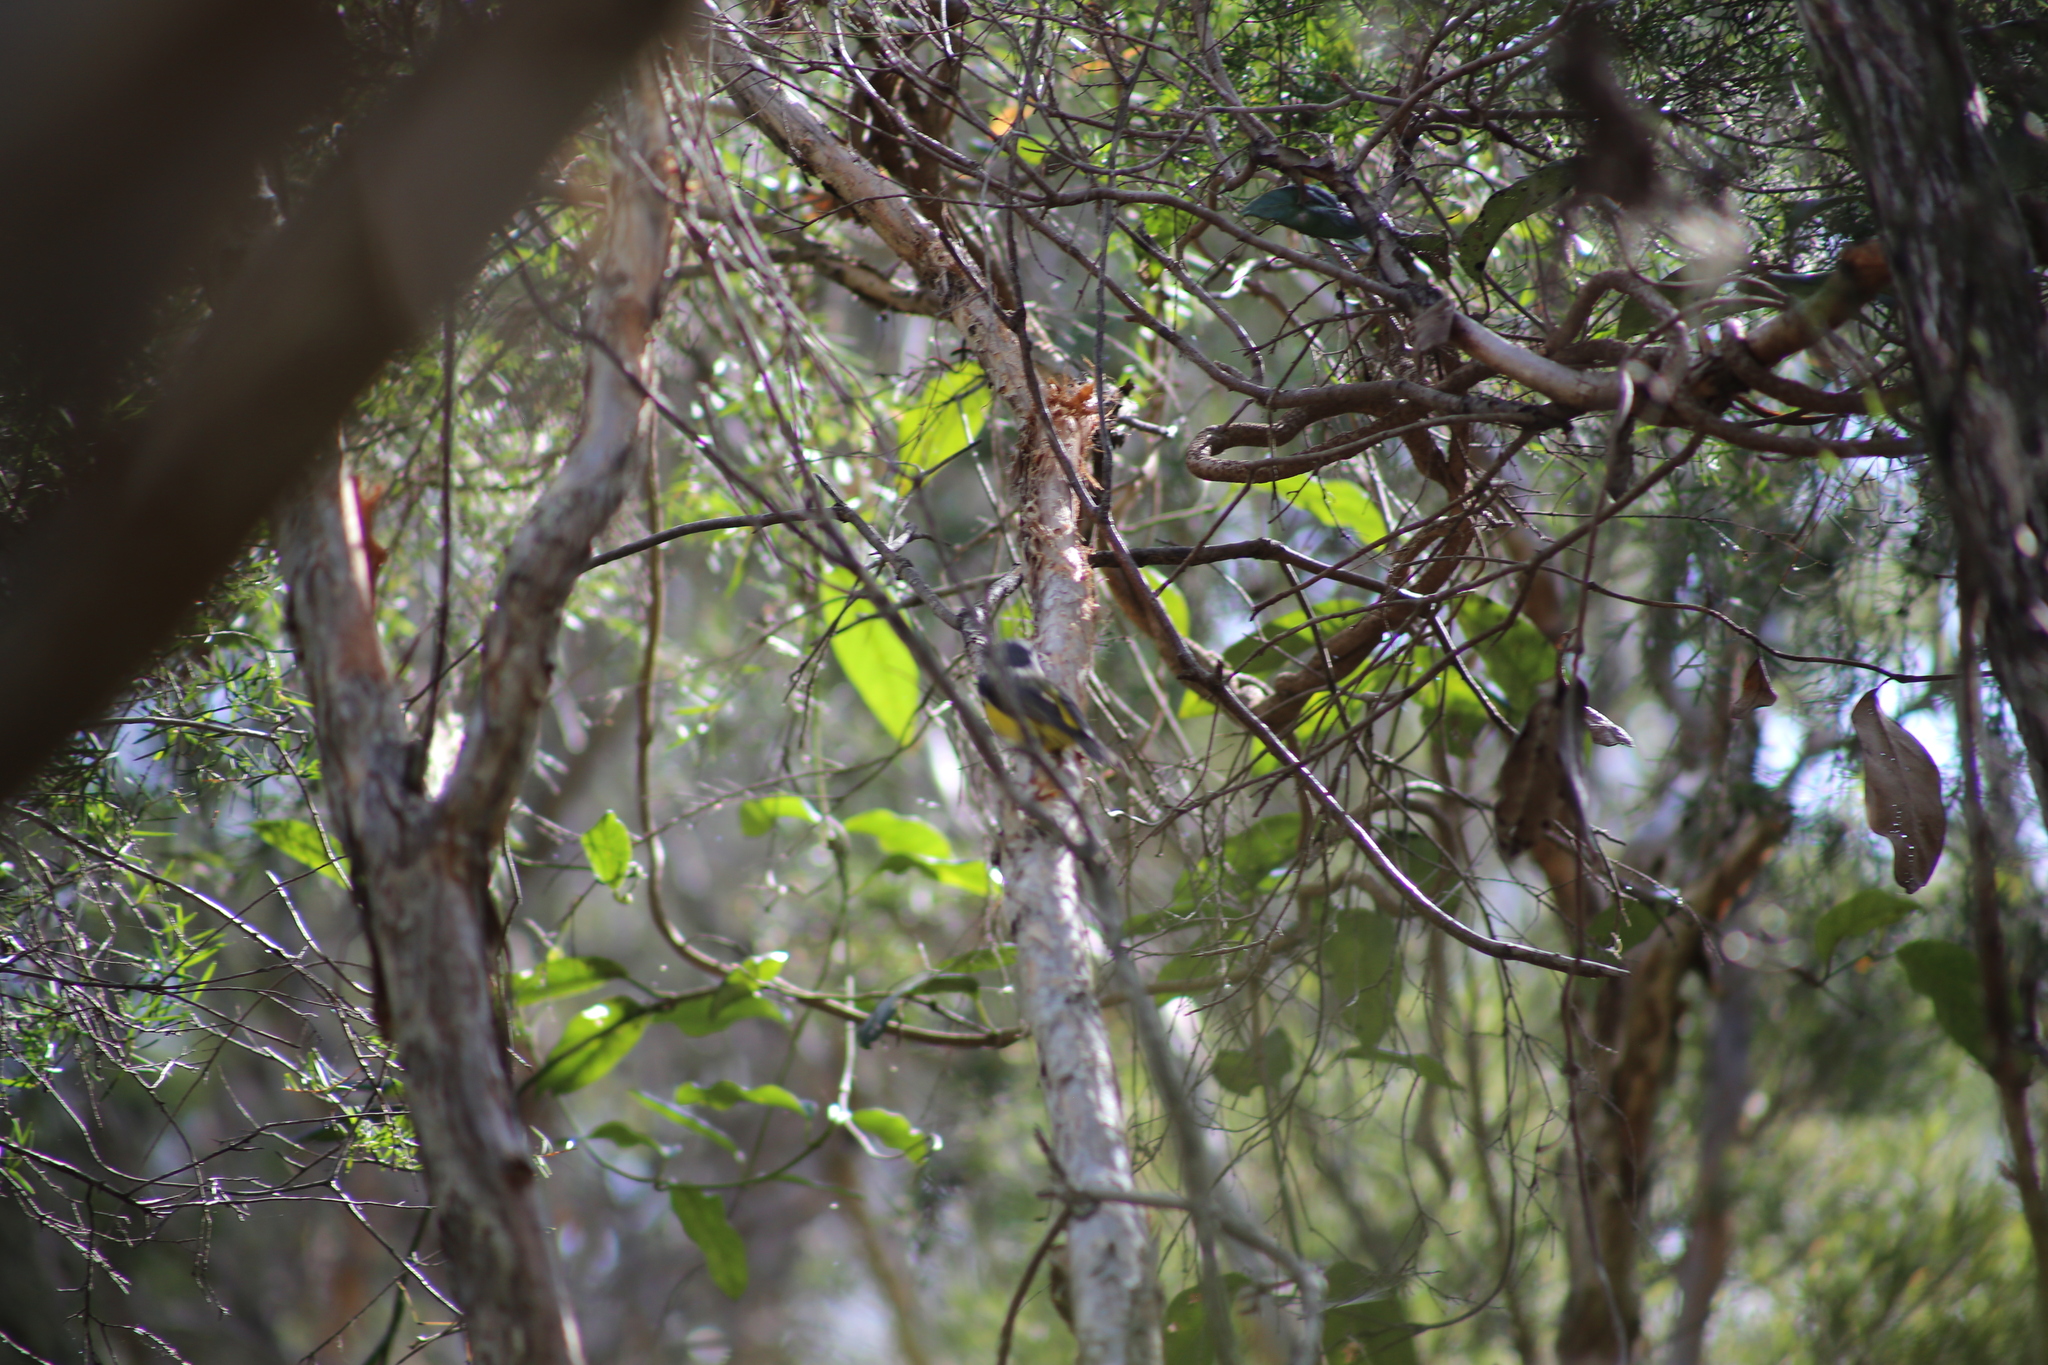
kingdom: Animalia
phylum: Chordata
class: Aves
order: Passeriformes
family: Petroicidae
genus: Eopsaltria
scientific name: Eopsaltria australis
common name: Eastern yellow robin
